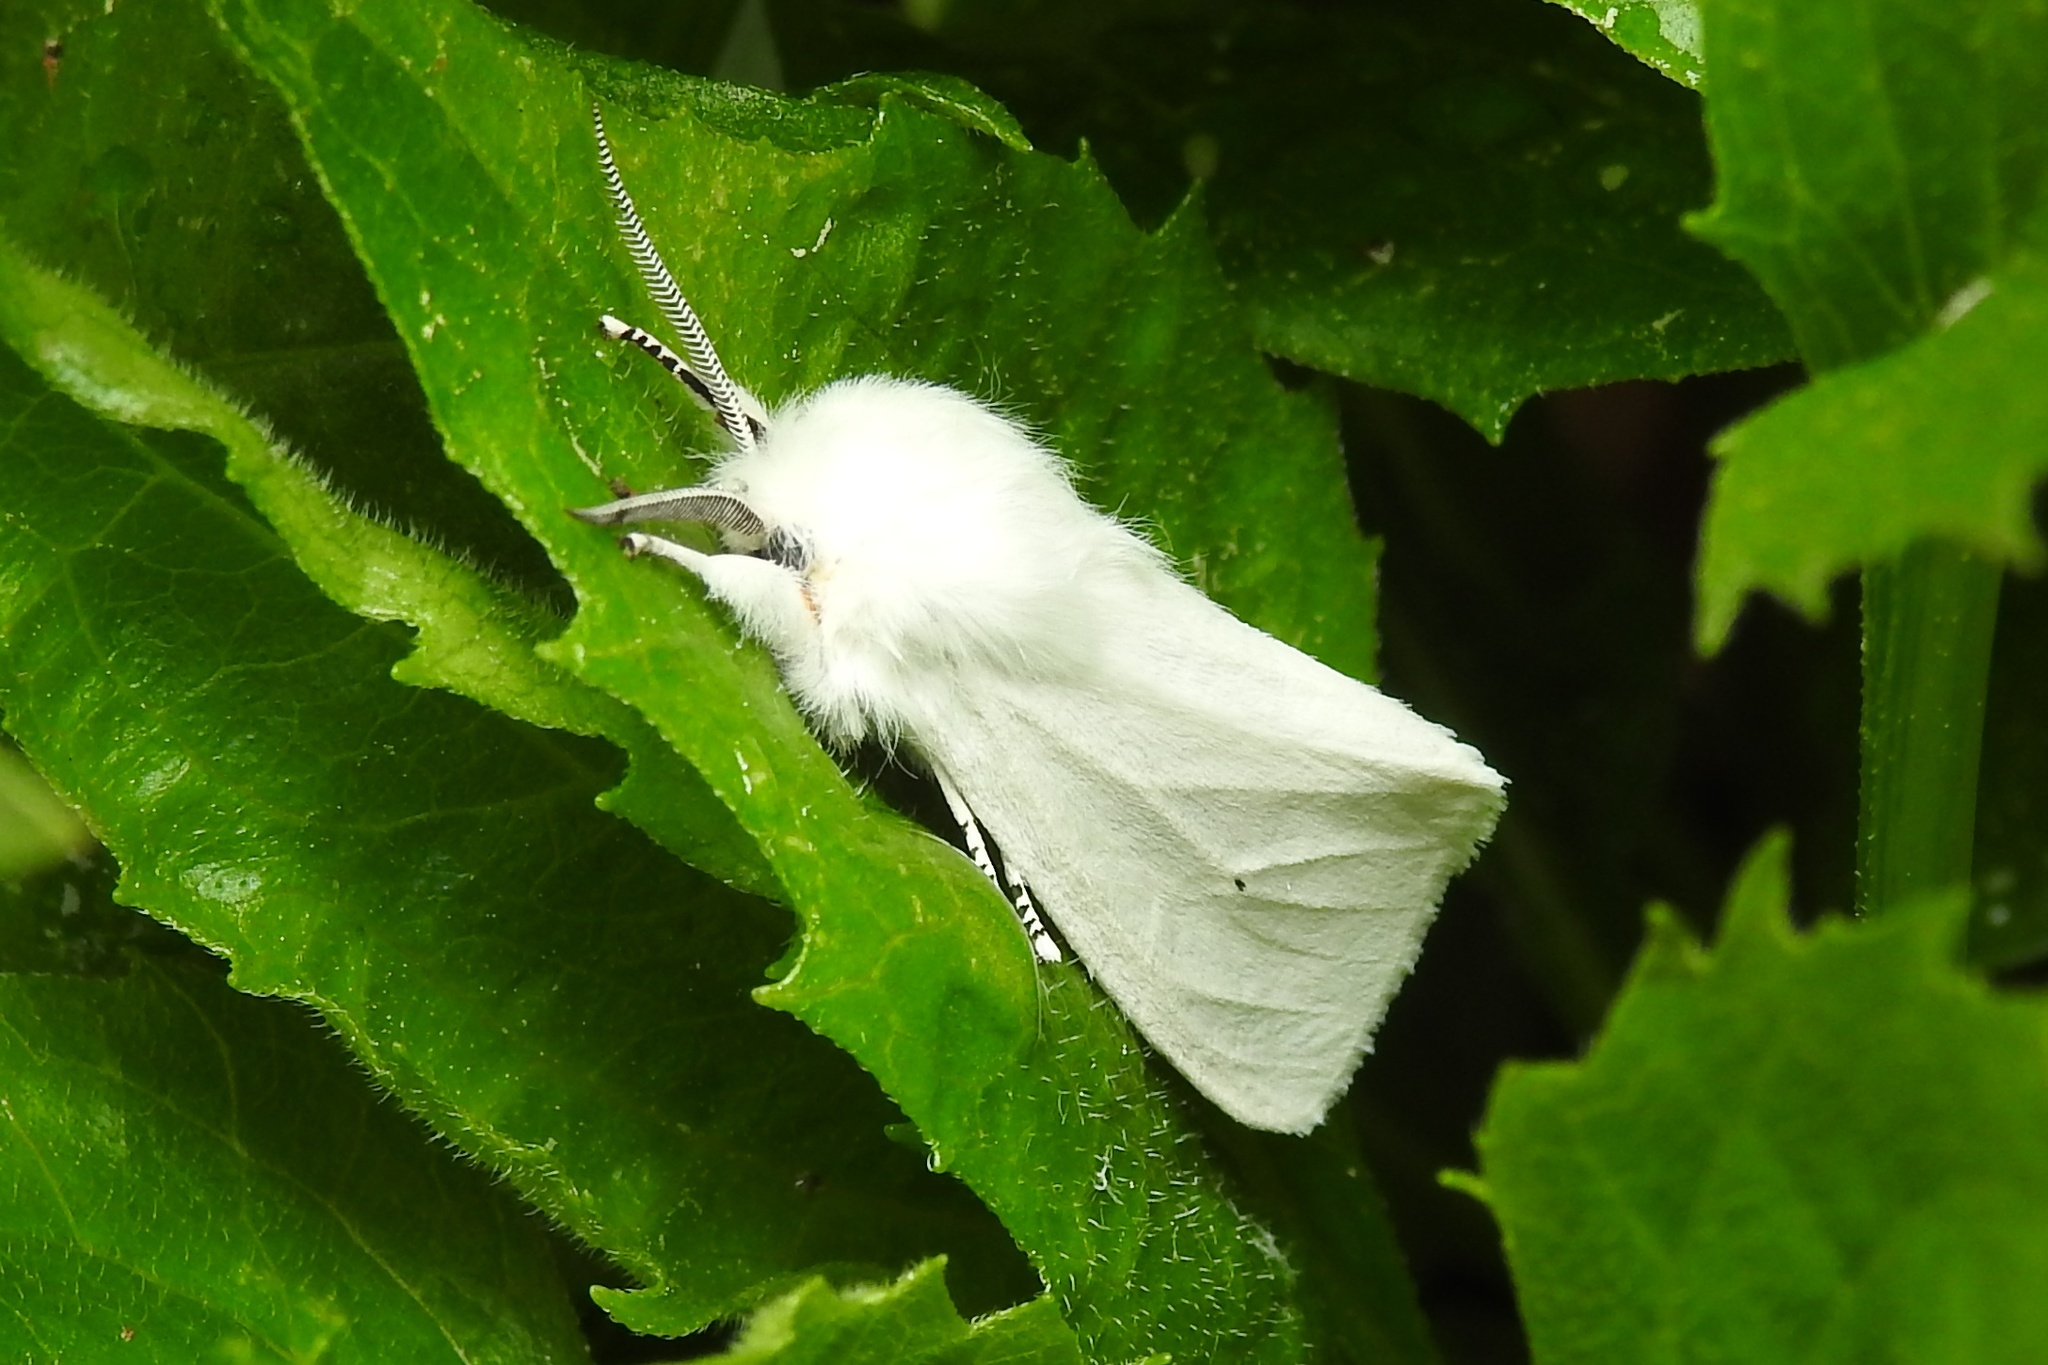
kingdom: Animalia
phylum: Arthropoda
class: Insecta
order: Lepidoptera
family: Erebidae
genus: Spilosoma
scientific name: Spilosoma virginica
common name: Virginia tiger moth
